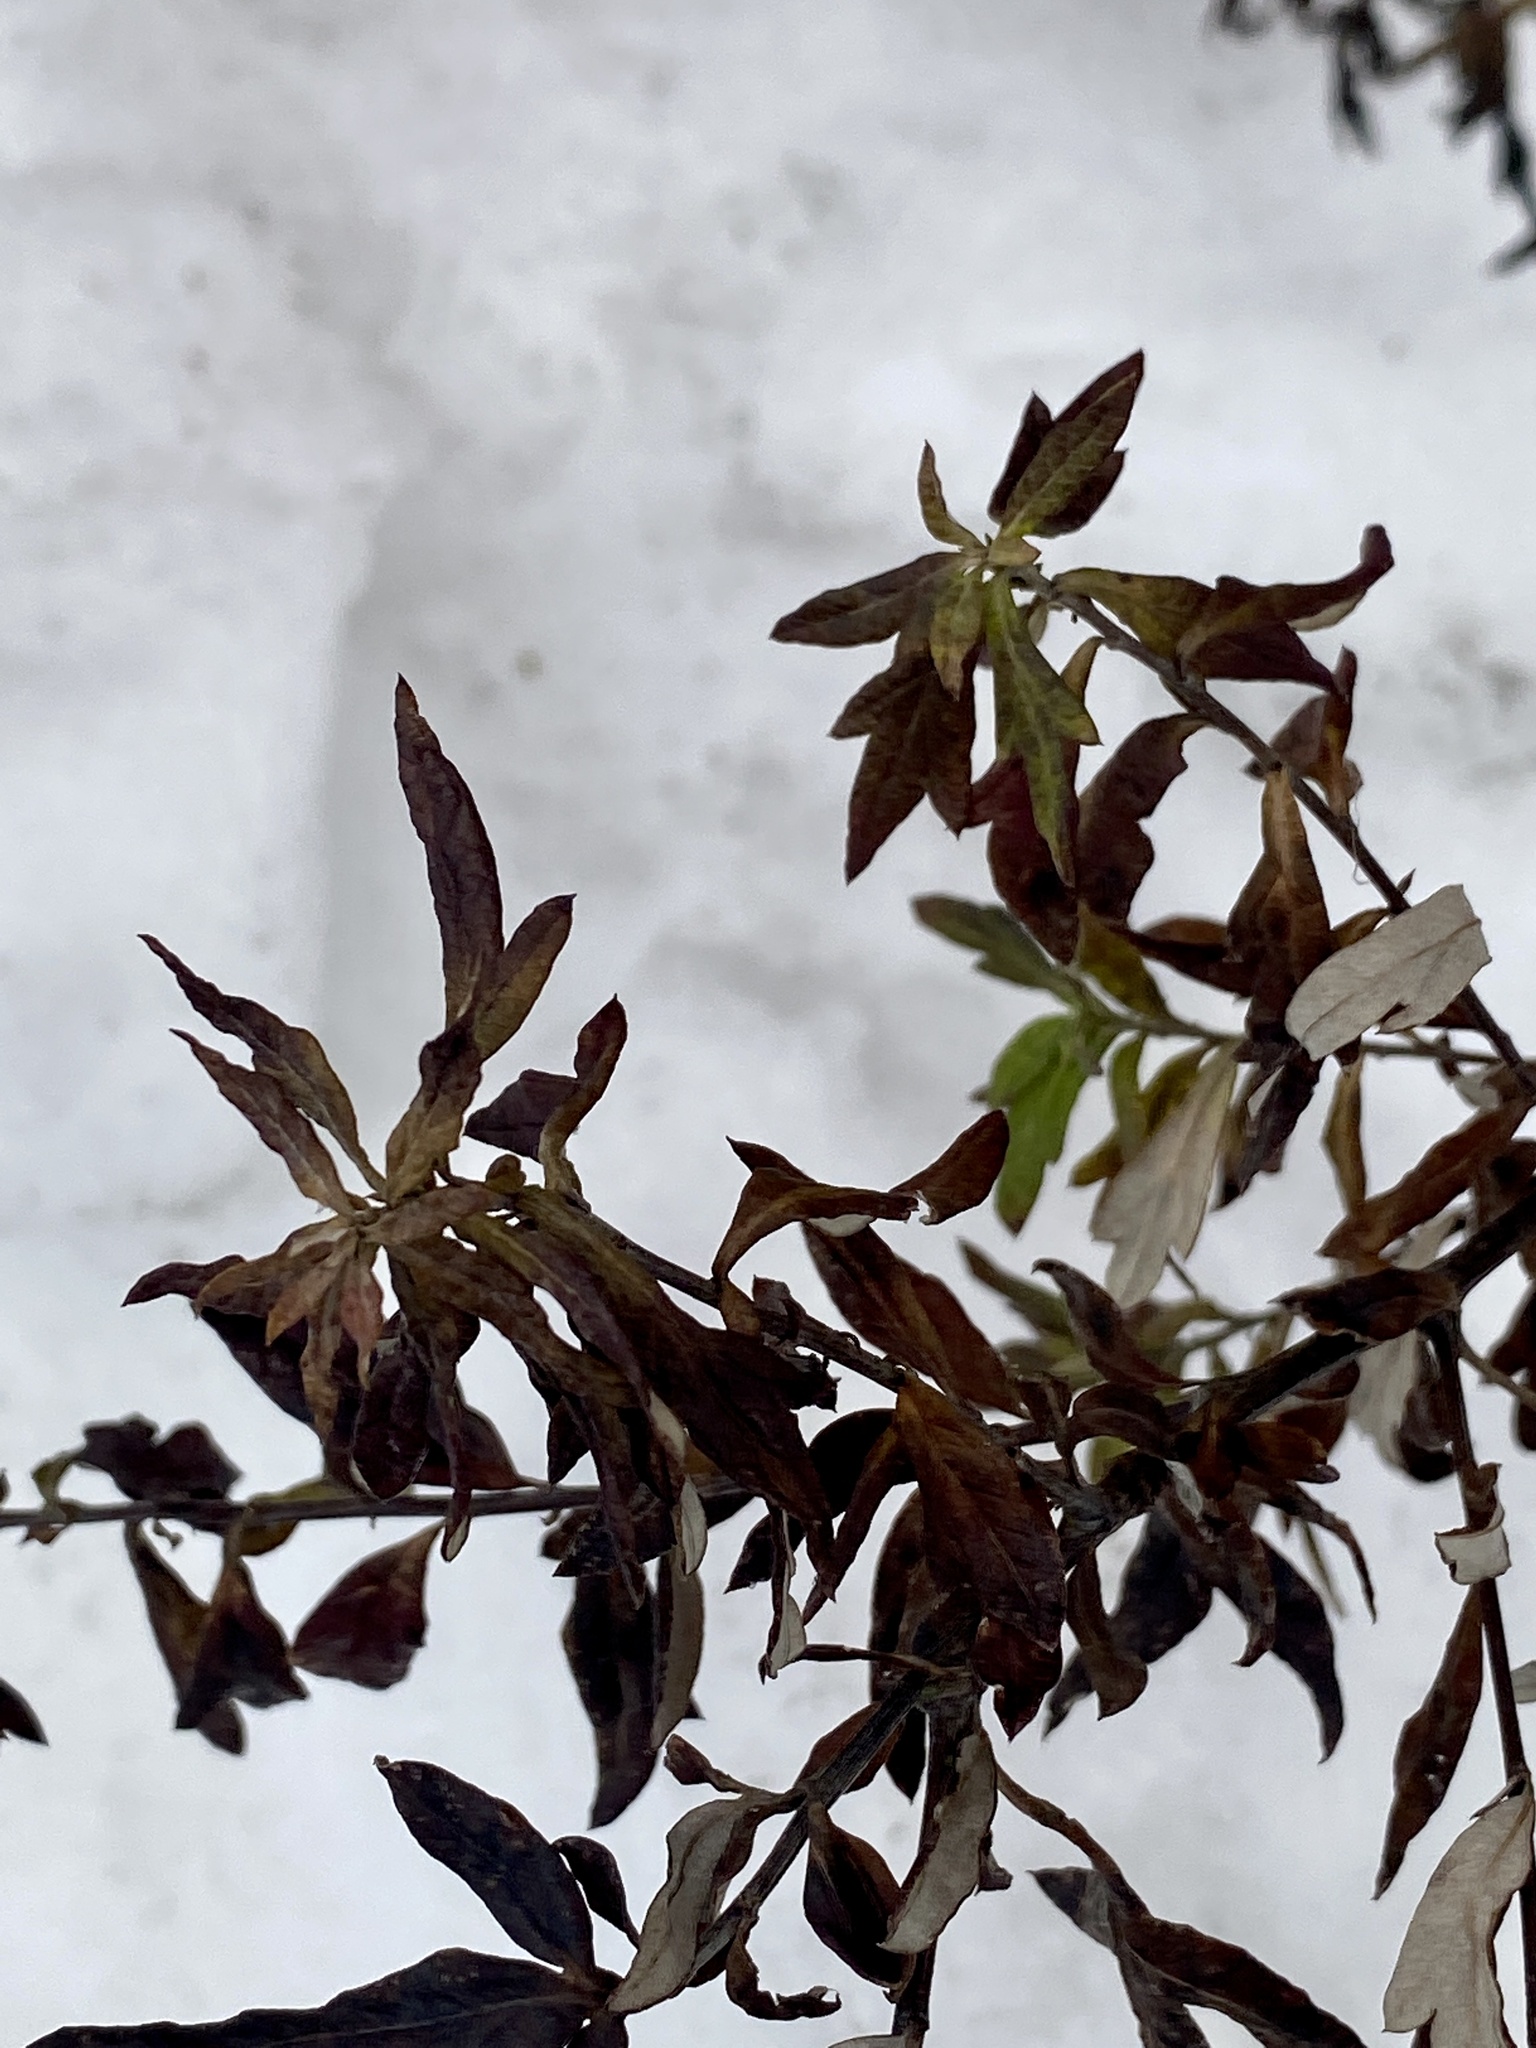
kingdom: Plantae
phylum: Tracheophyta
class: Magnoliopsida
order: Asterales
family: Asteraceae
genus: Artemisia
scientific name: Artemisia vulgaris
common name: Mugwort
